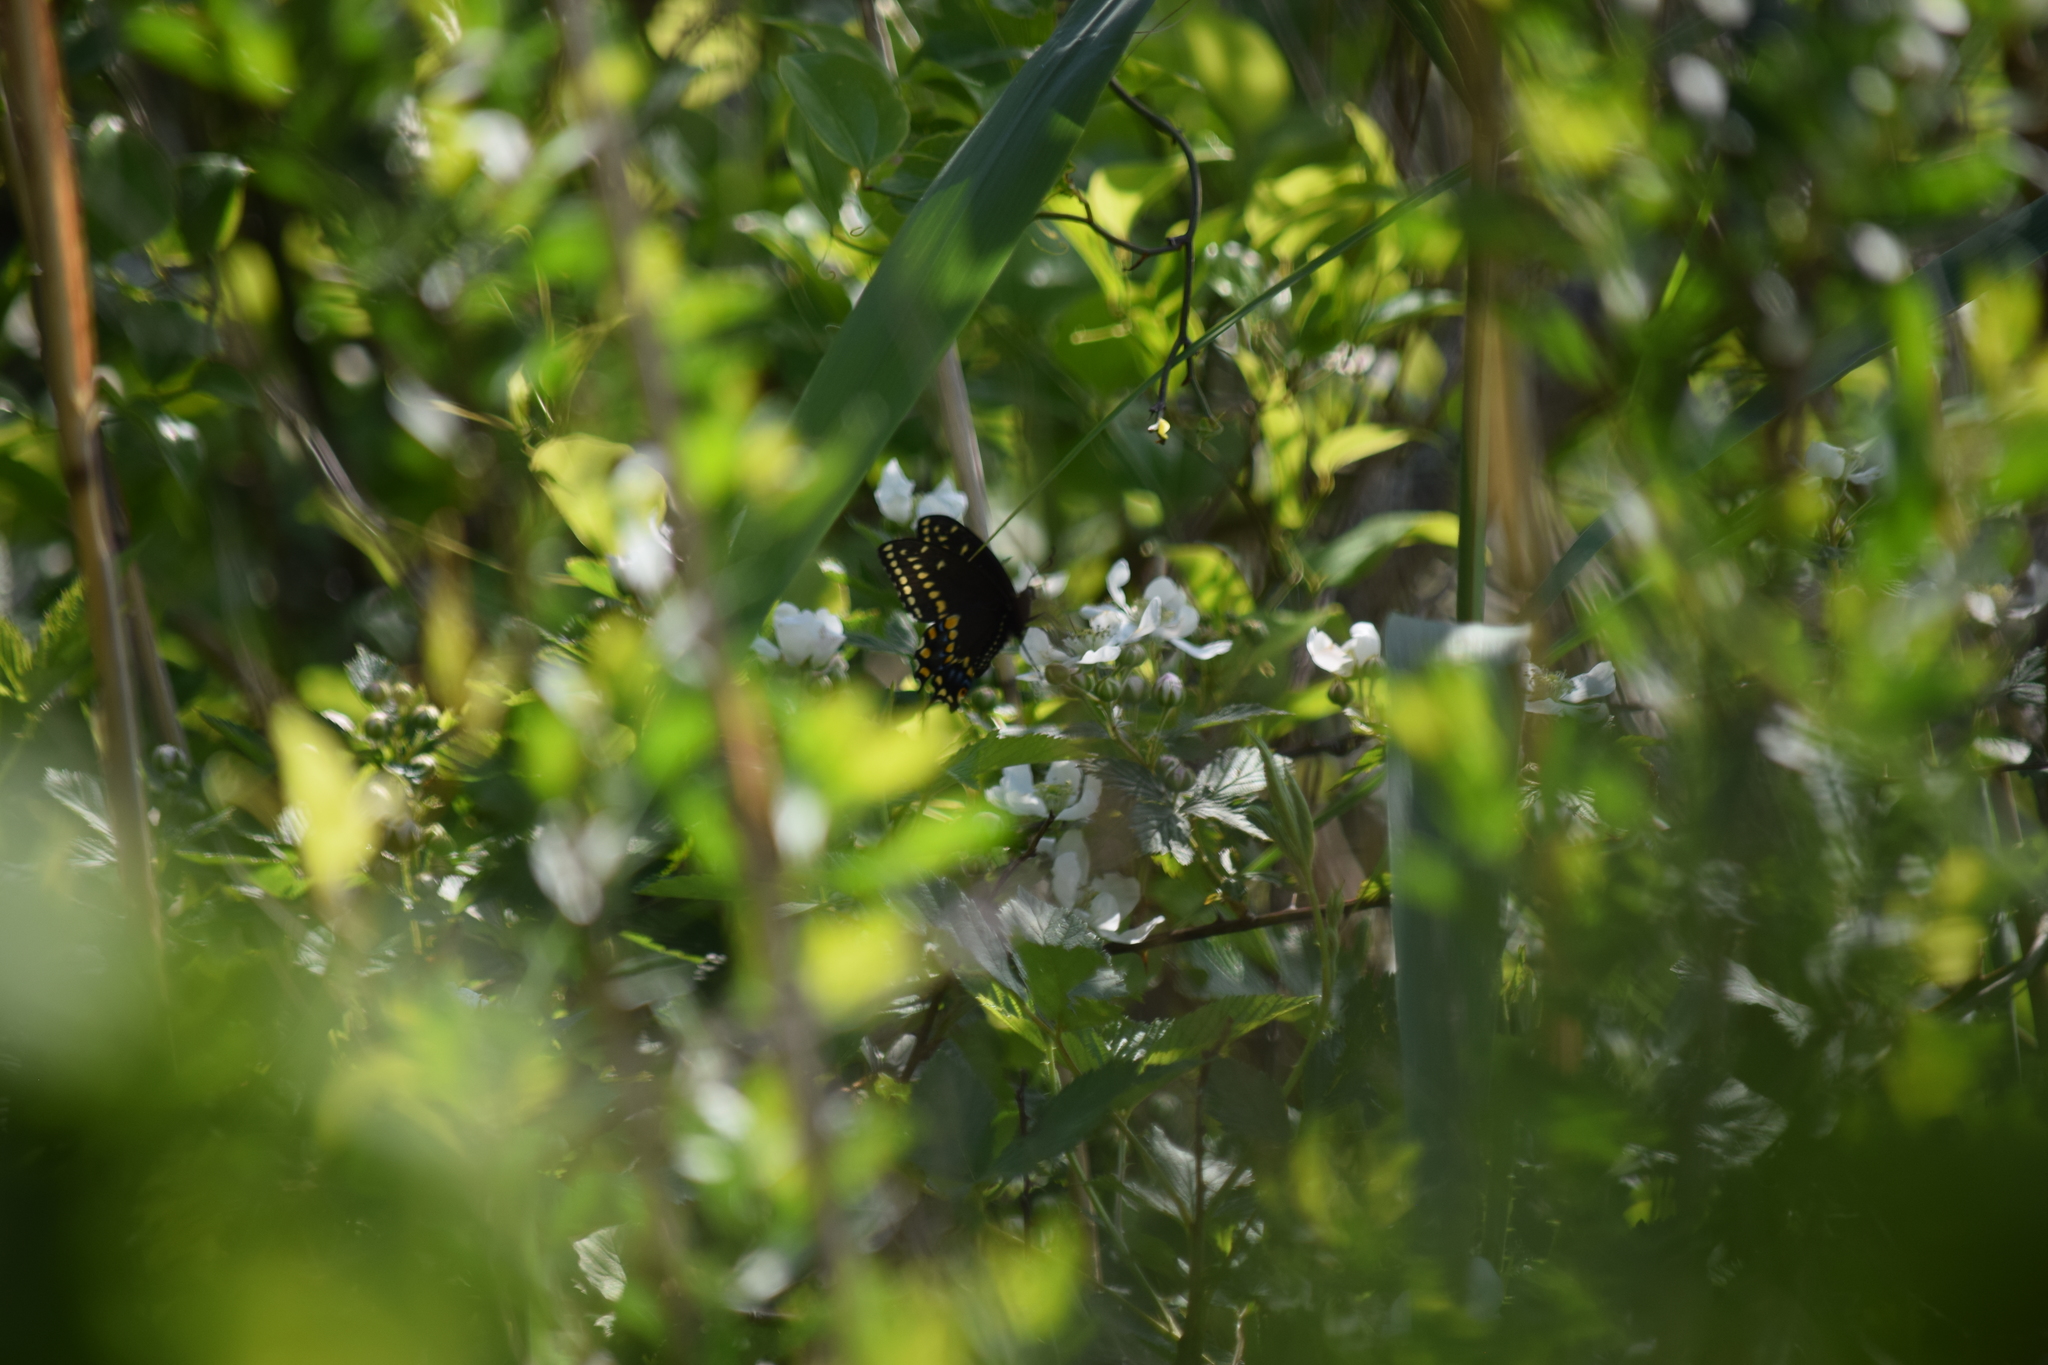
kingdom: Animalia
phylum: Arthropoda
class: Insecta
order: Lepidoptera
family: Papilionidae
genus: Papilio
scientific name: Papilio polyxenes
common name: Black swallowtail
